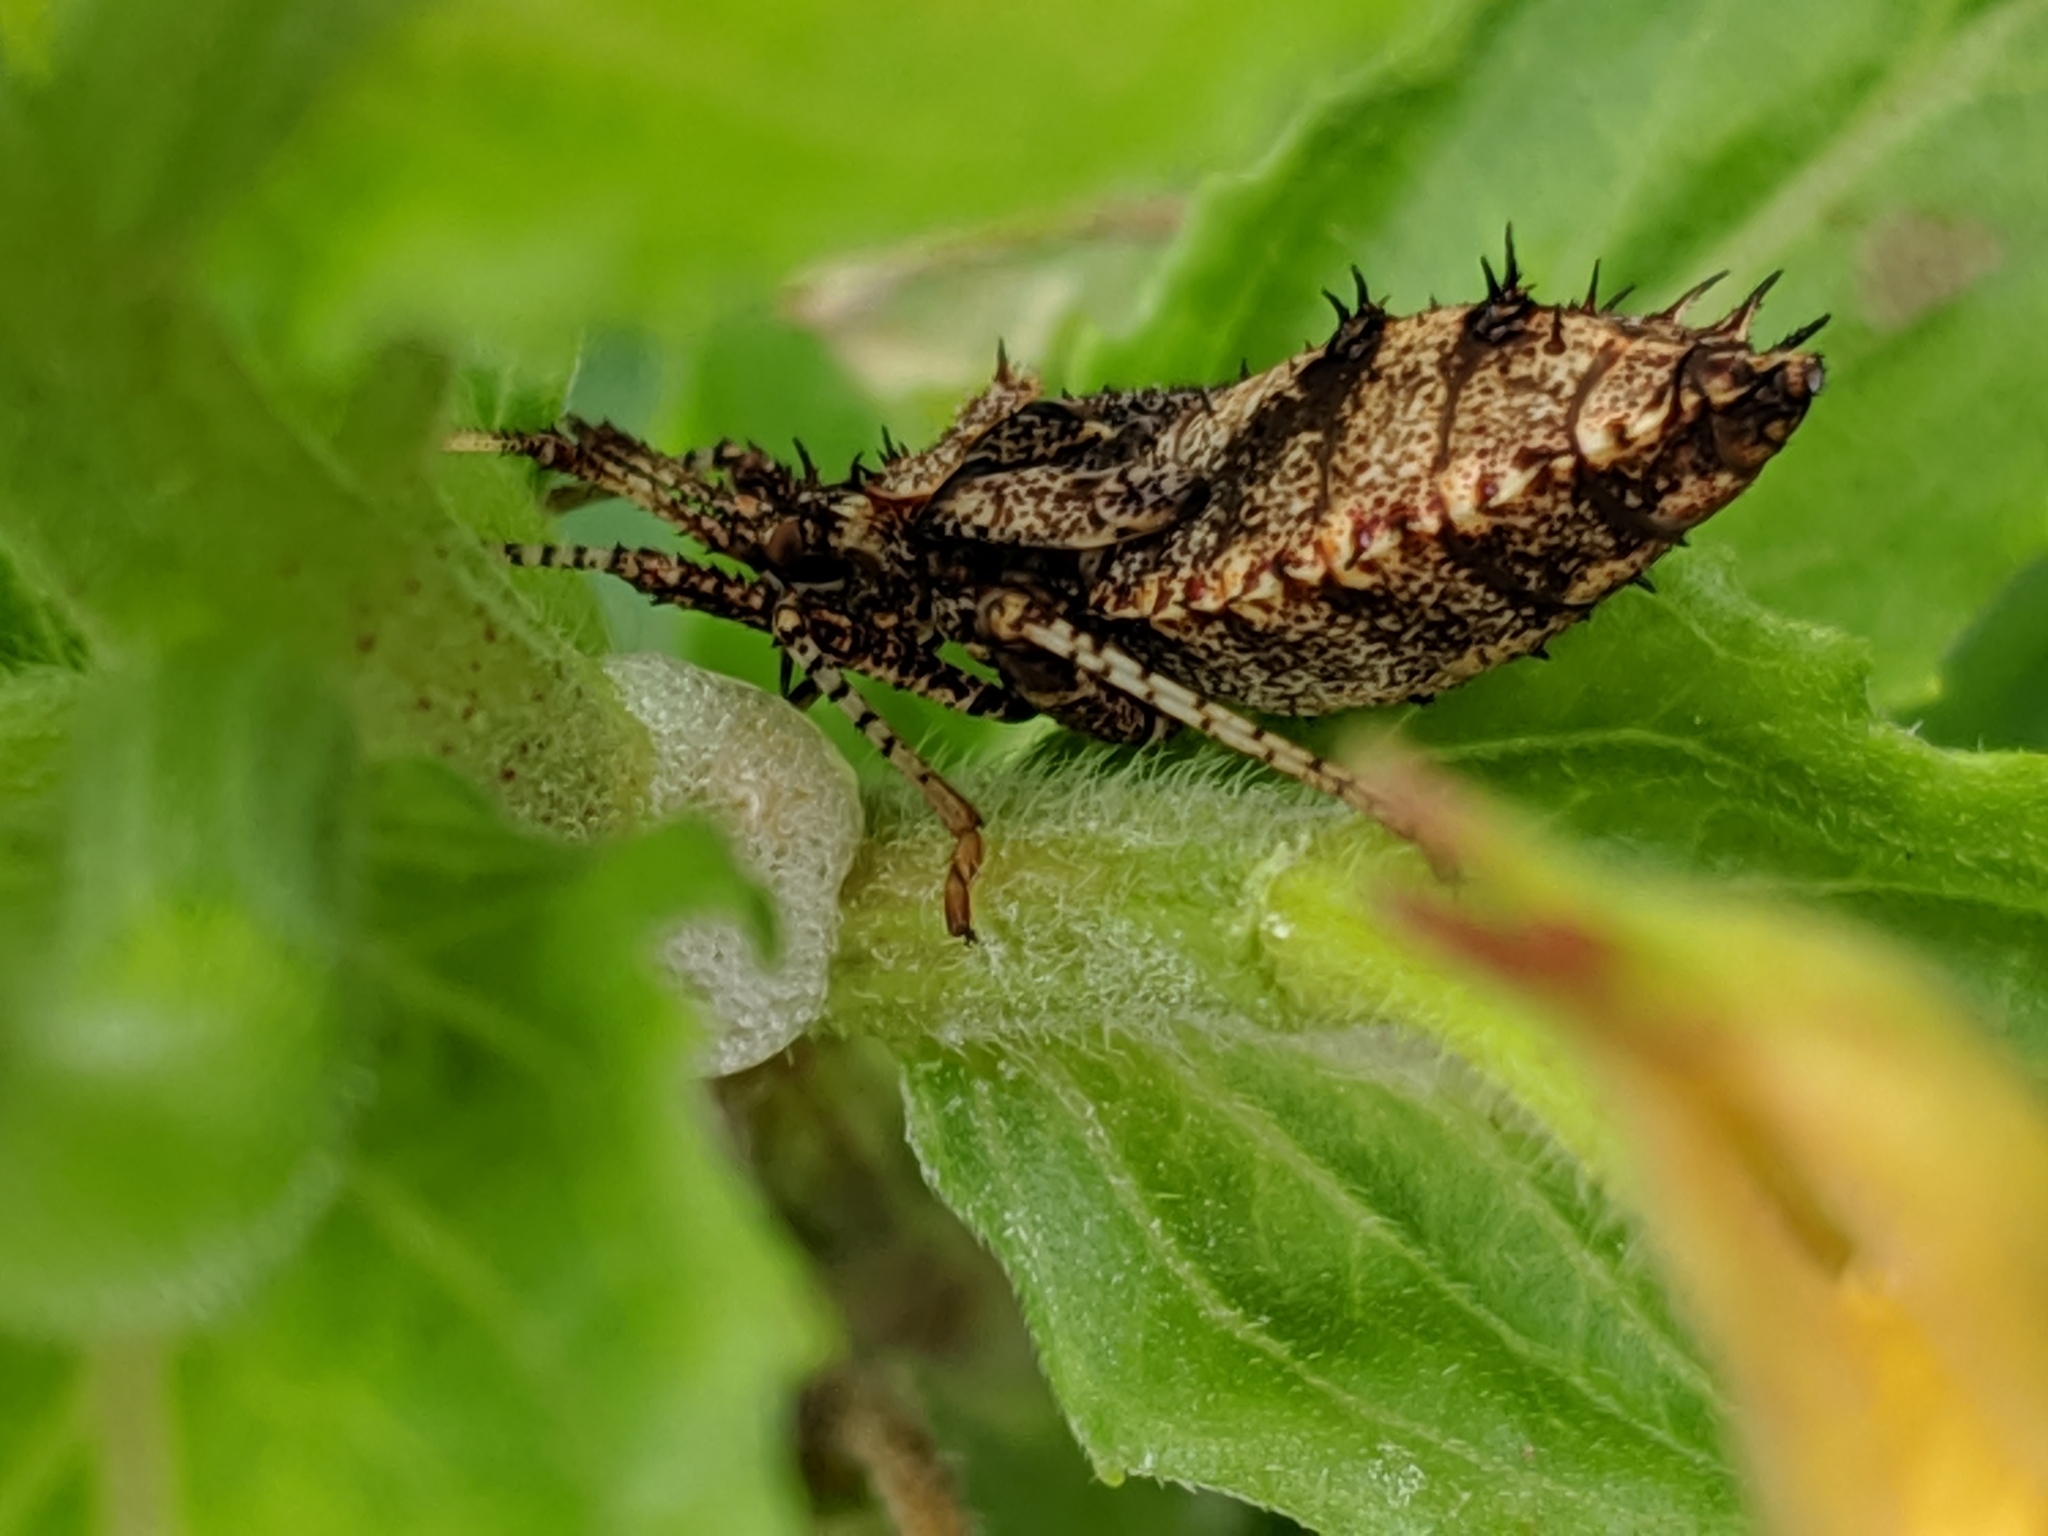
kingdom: Animalia
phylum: Arthropoda
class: Insecta
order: Hemiptera
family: Coreidae
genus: Euthochtha
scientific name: Euthochtha galeator
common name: Helmeted squash bug
